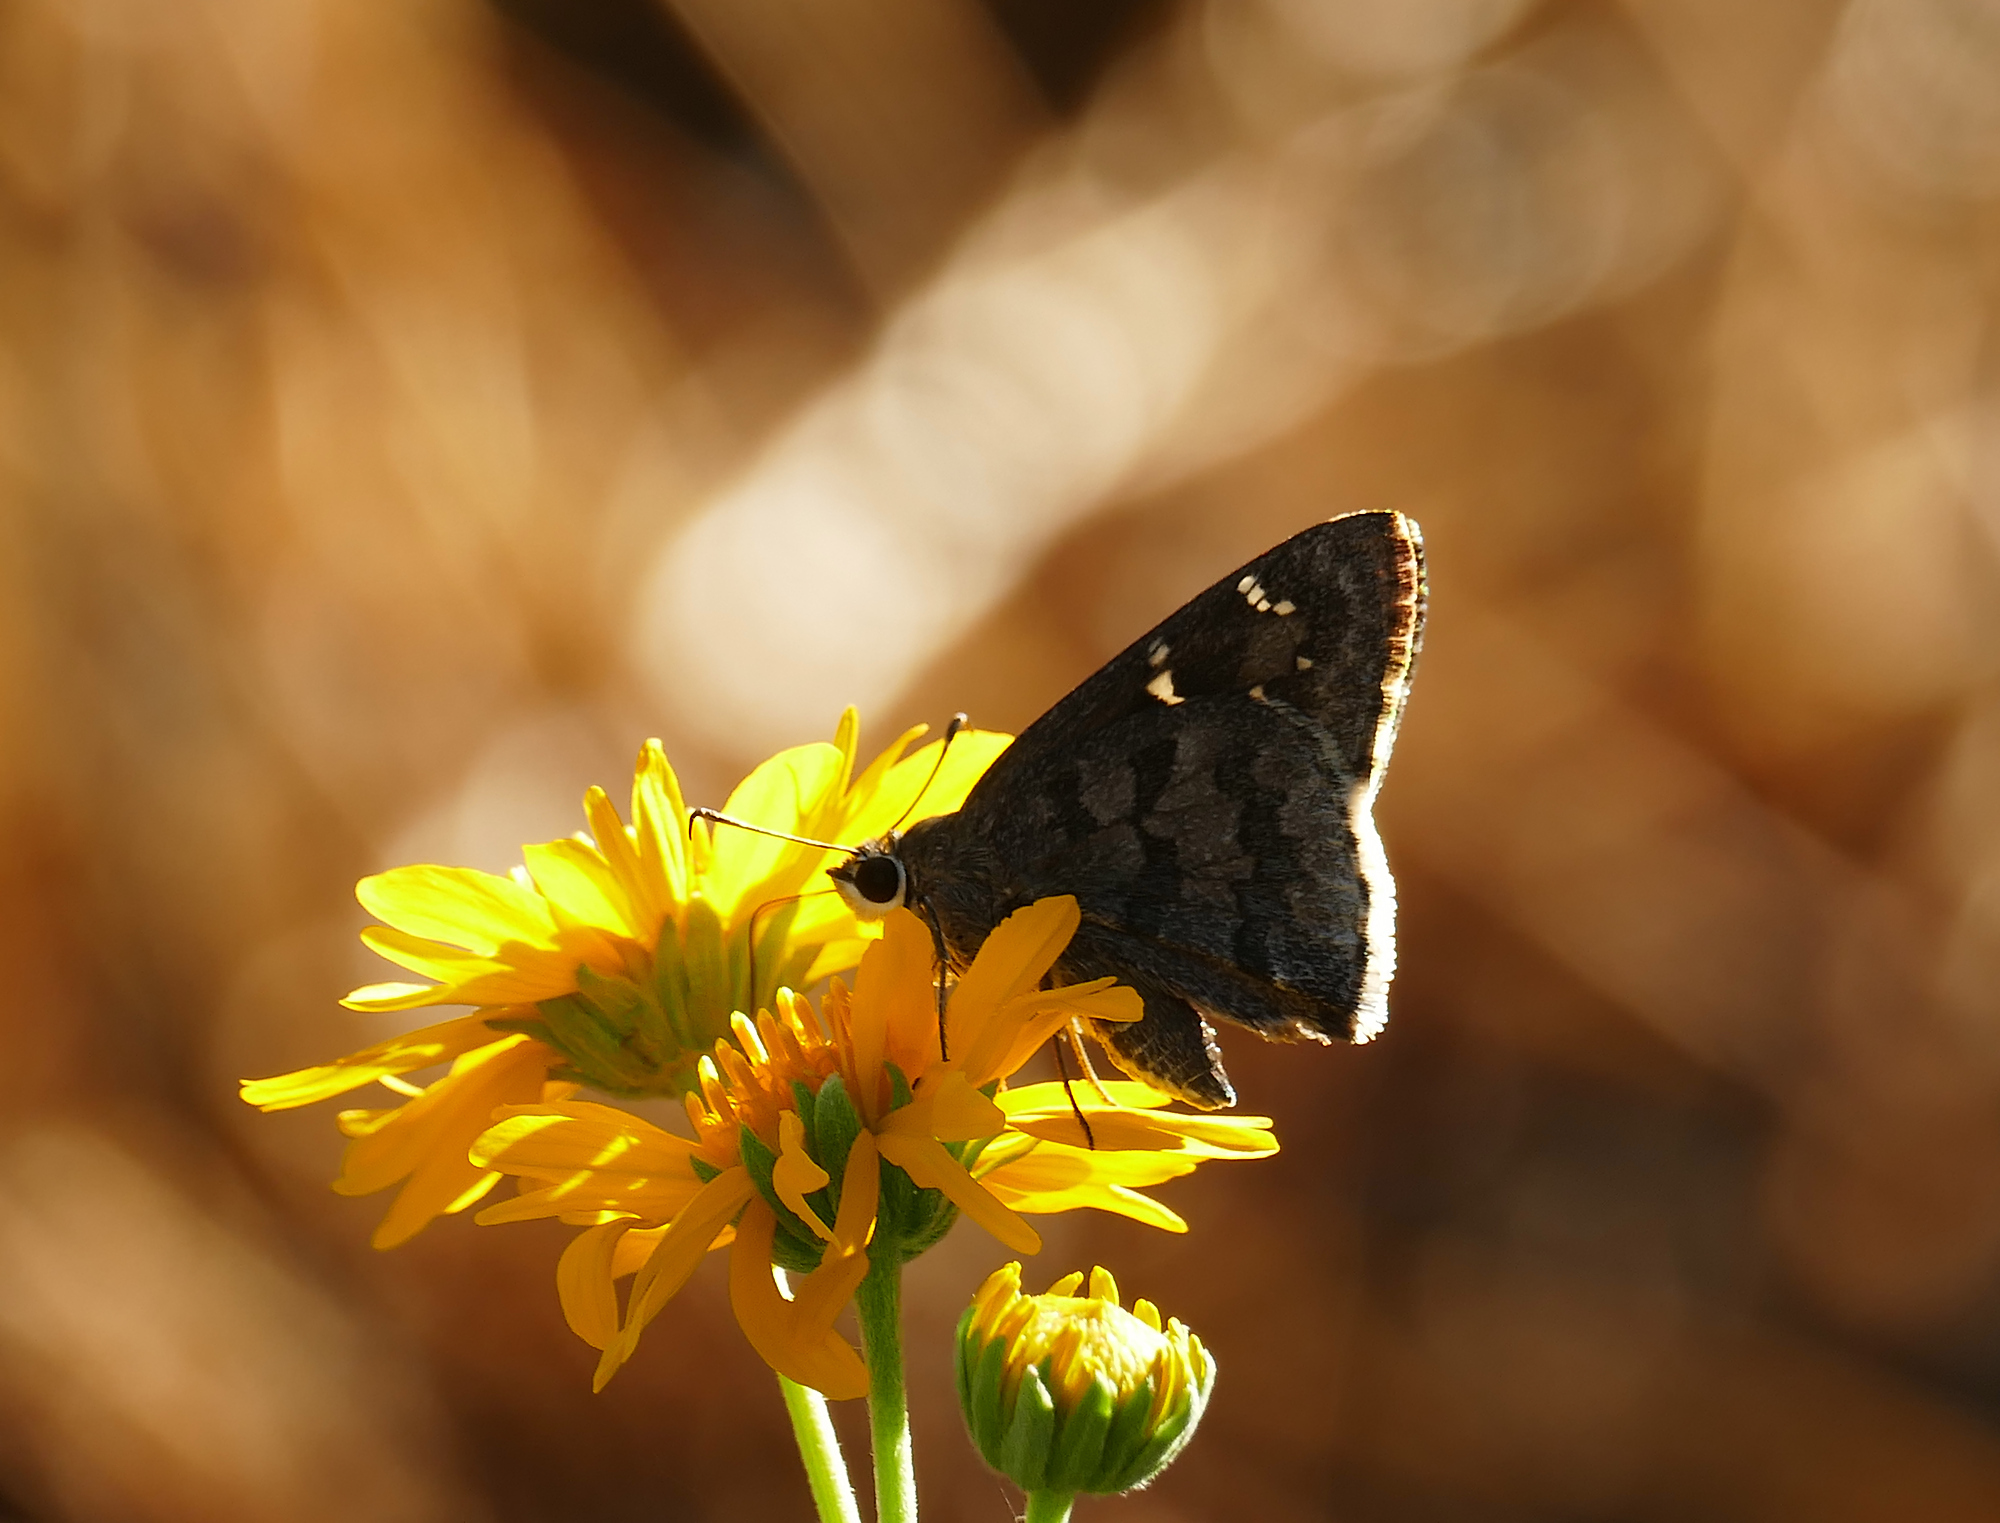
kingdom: Animalia
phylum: Arthropoda
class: Insecta
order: Lepidoptera
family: Hesperiidae
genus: Cogia
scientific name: Cogia hippalus
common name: Acacia skipper
